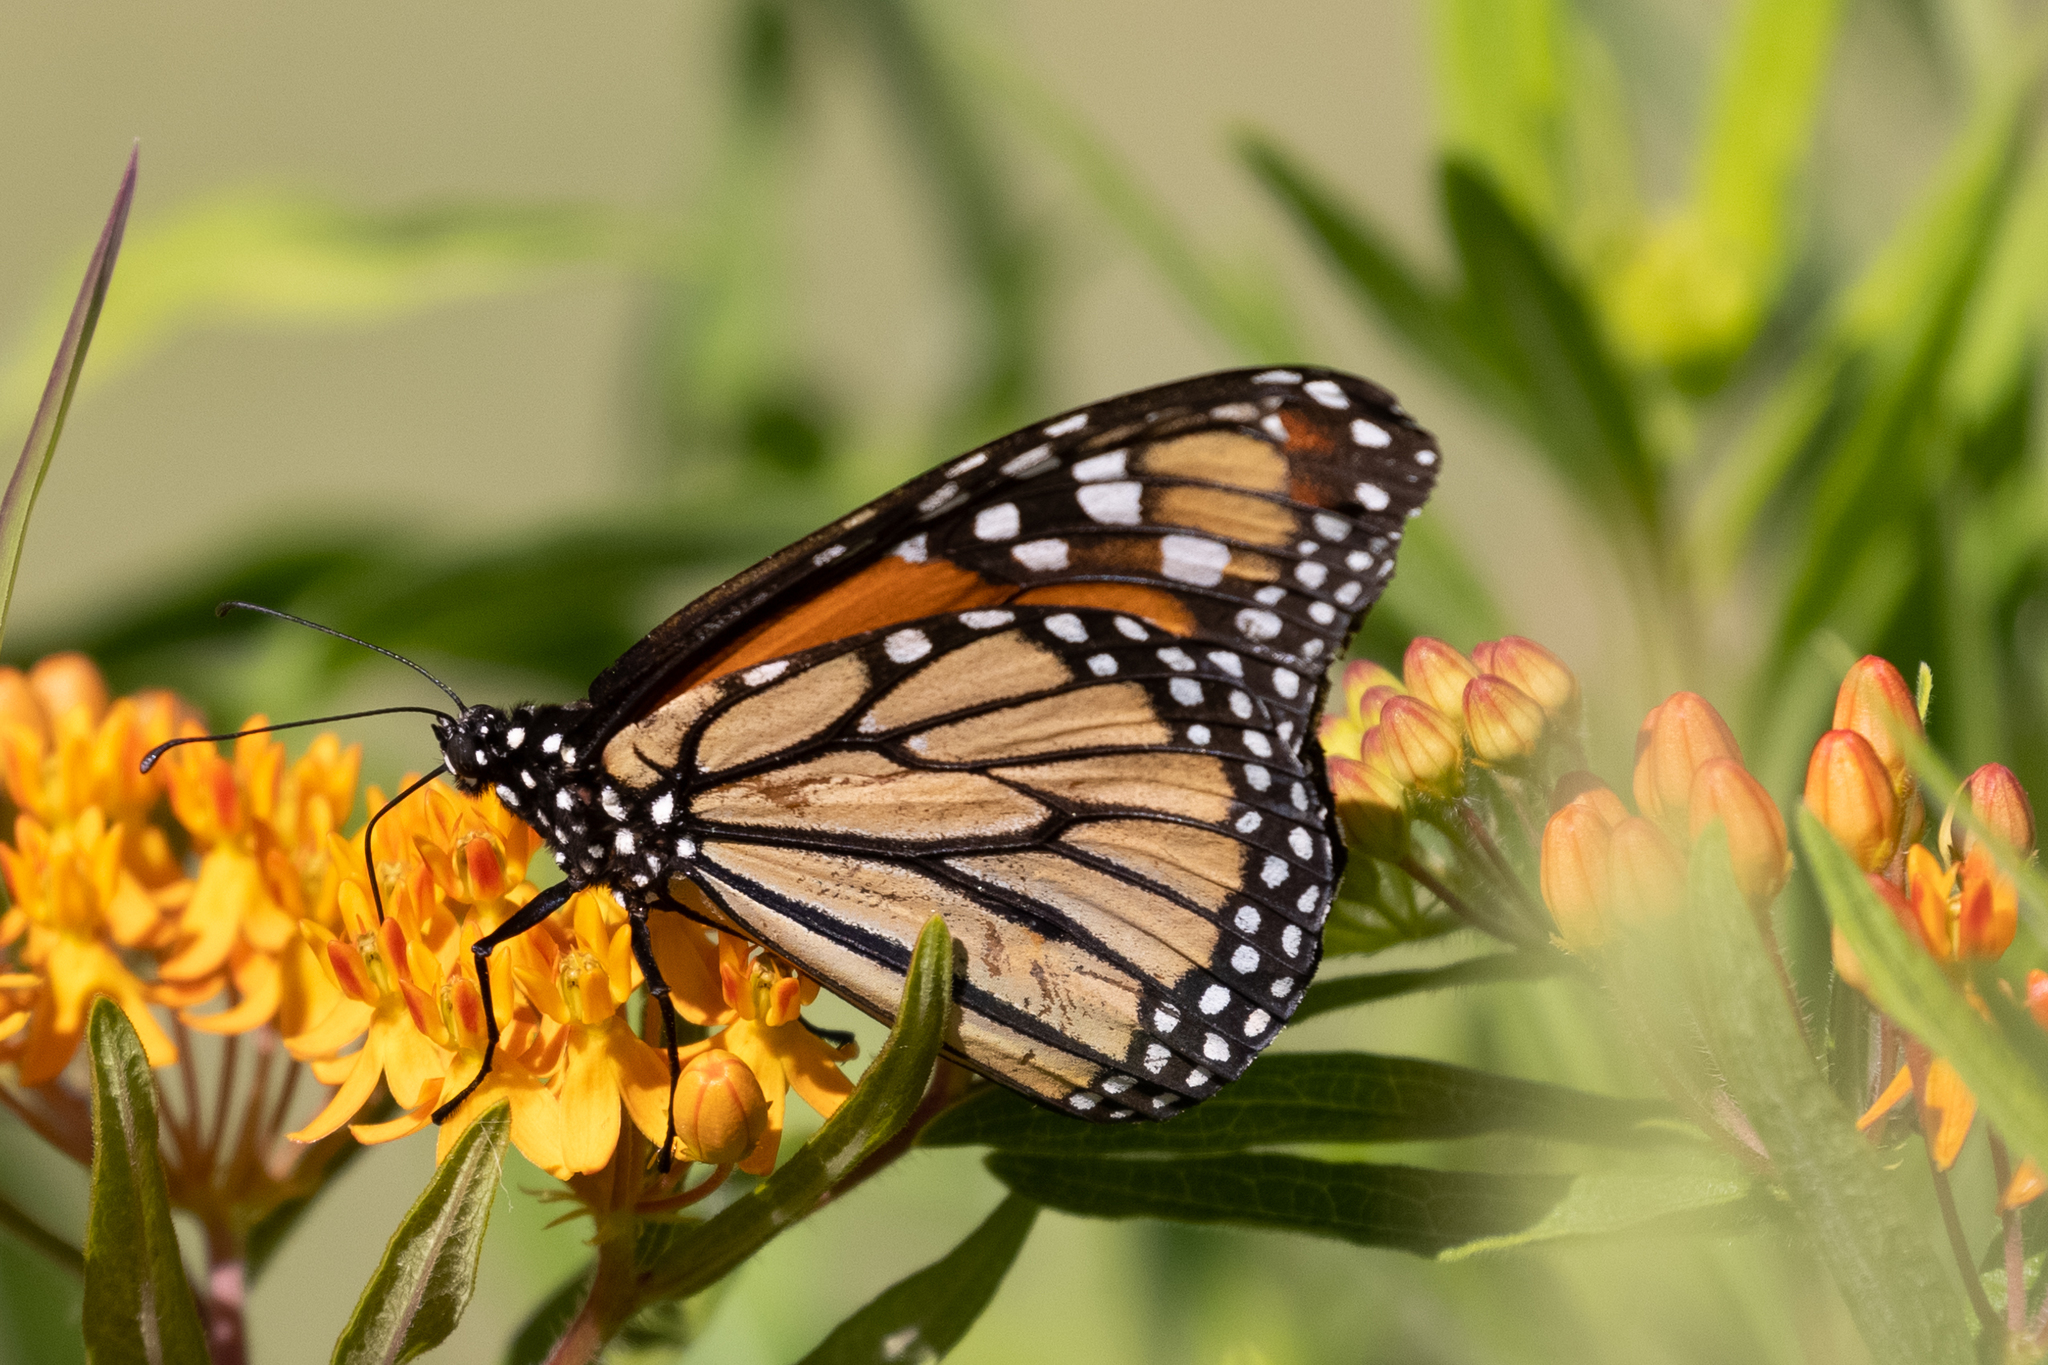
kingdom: Animalia
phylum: Arthropoda
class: Insecta
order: Lepidoptera
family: Nymphalidae
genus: Danaus
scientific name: Danaus plexippus
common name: Monarch
